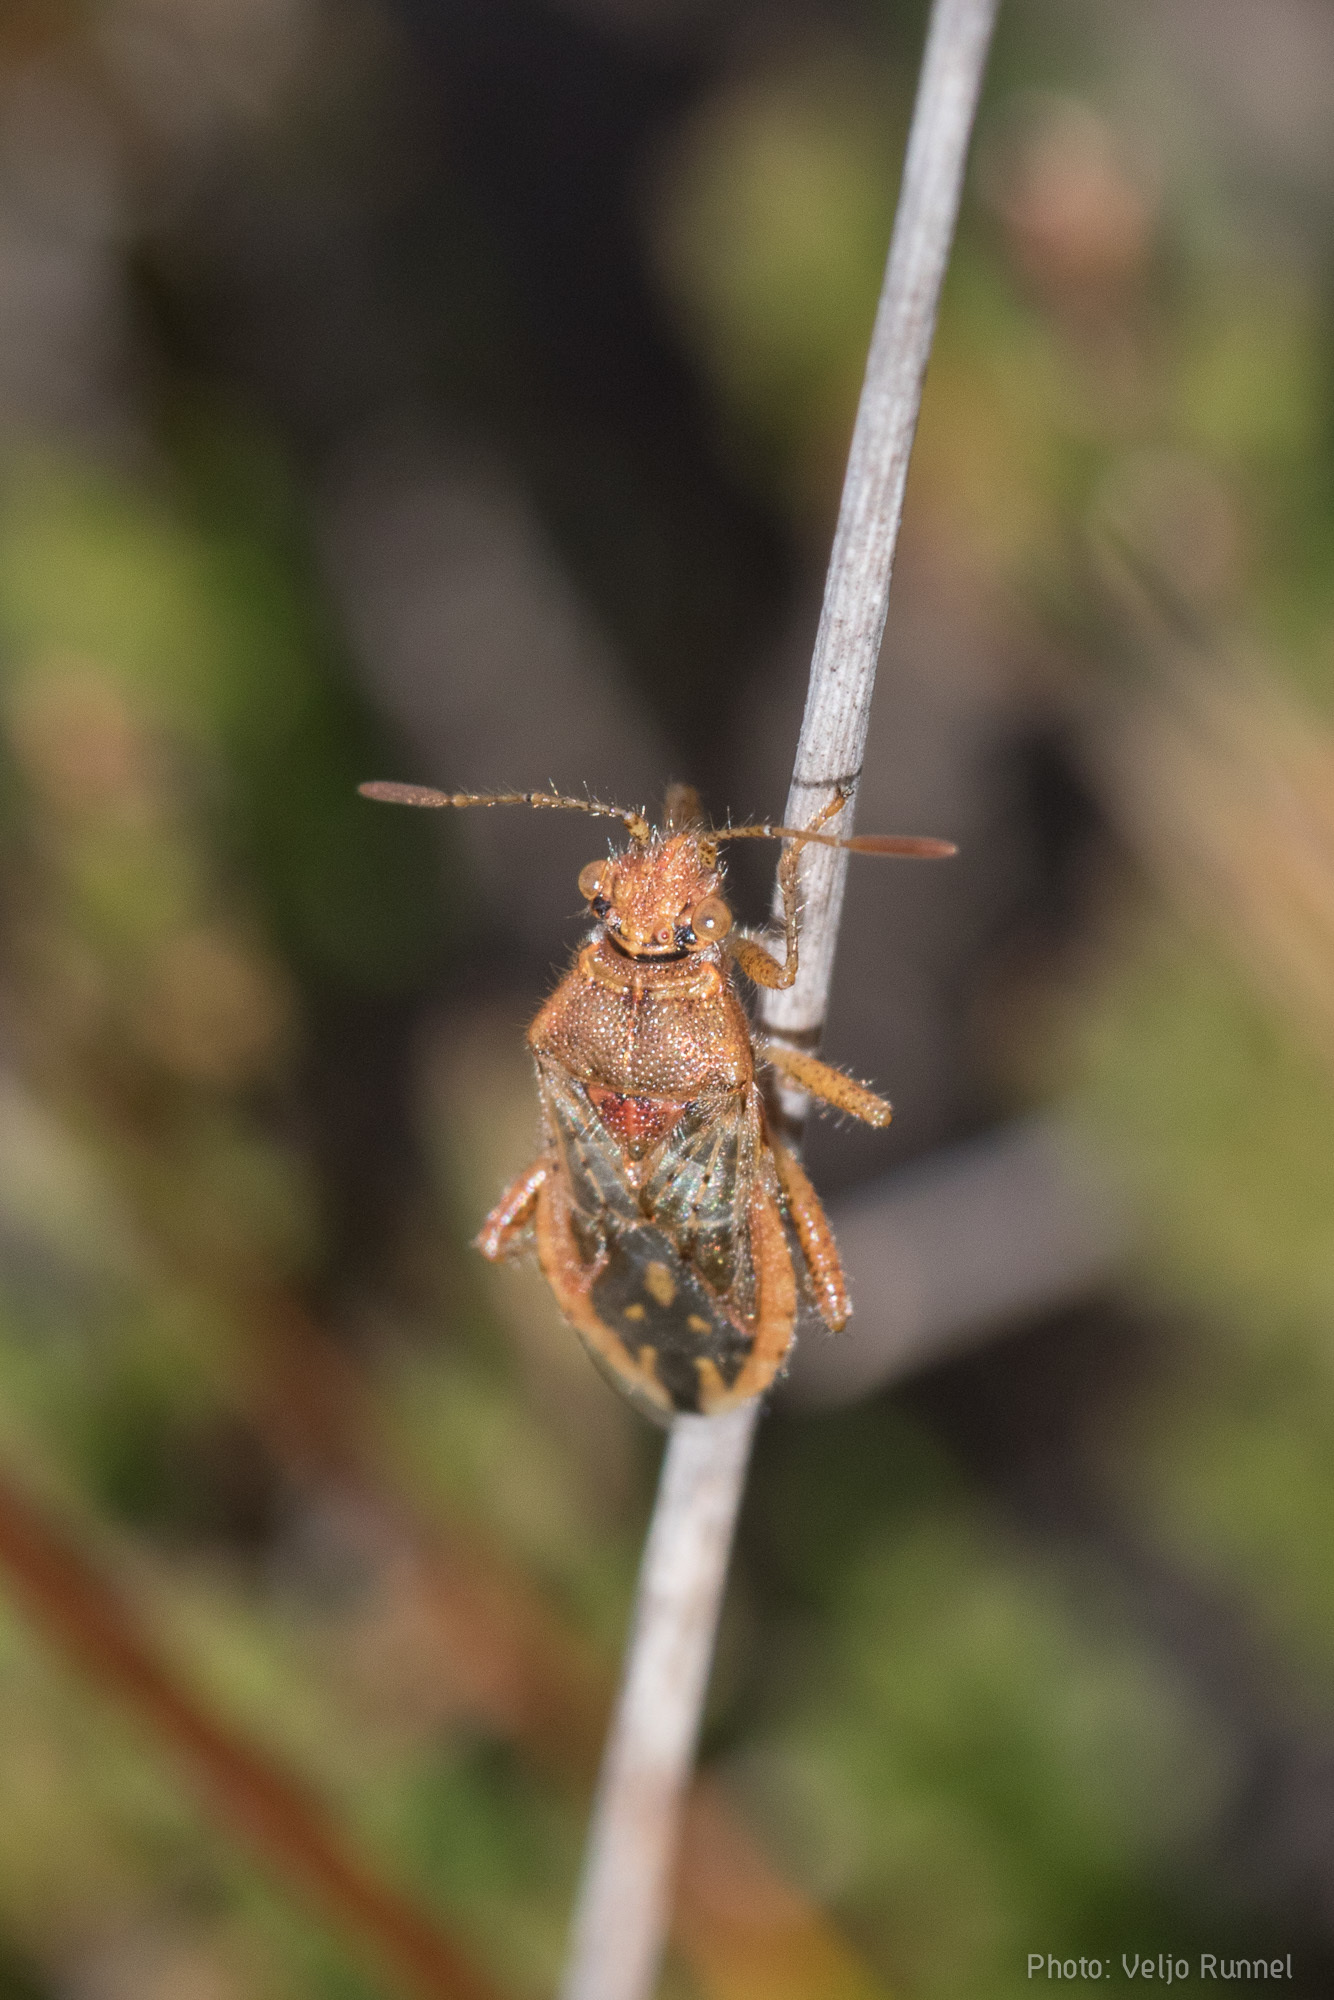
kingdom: Animalia
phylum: Arthropoda
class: Insecta
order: Hemiptera
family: Rhopalidae
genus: Rhopalus
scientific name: Rhopalus parumpunctatus
